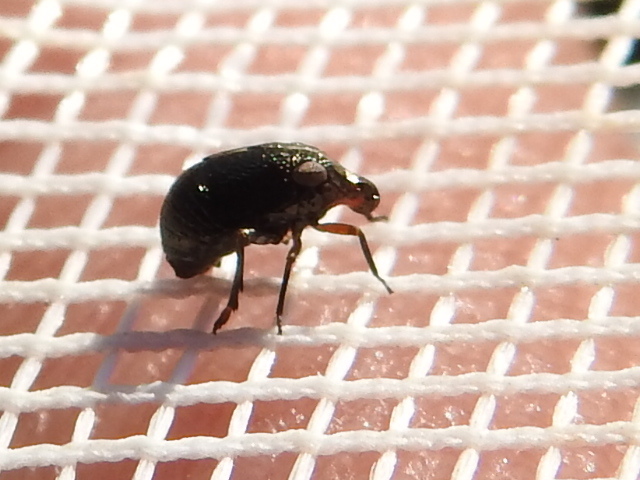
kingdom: Animalia
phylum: Arthropoda
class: Insecta
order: Hemiptera
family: Caliscelidae
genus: Bruchomorpha
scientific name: Bruchomorpha nodosa
